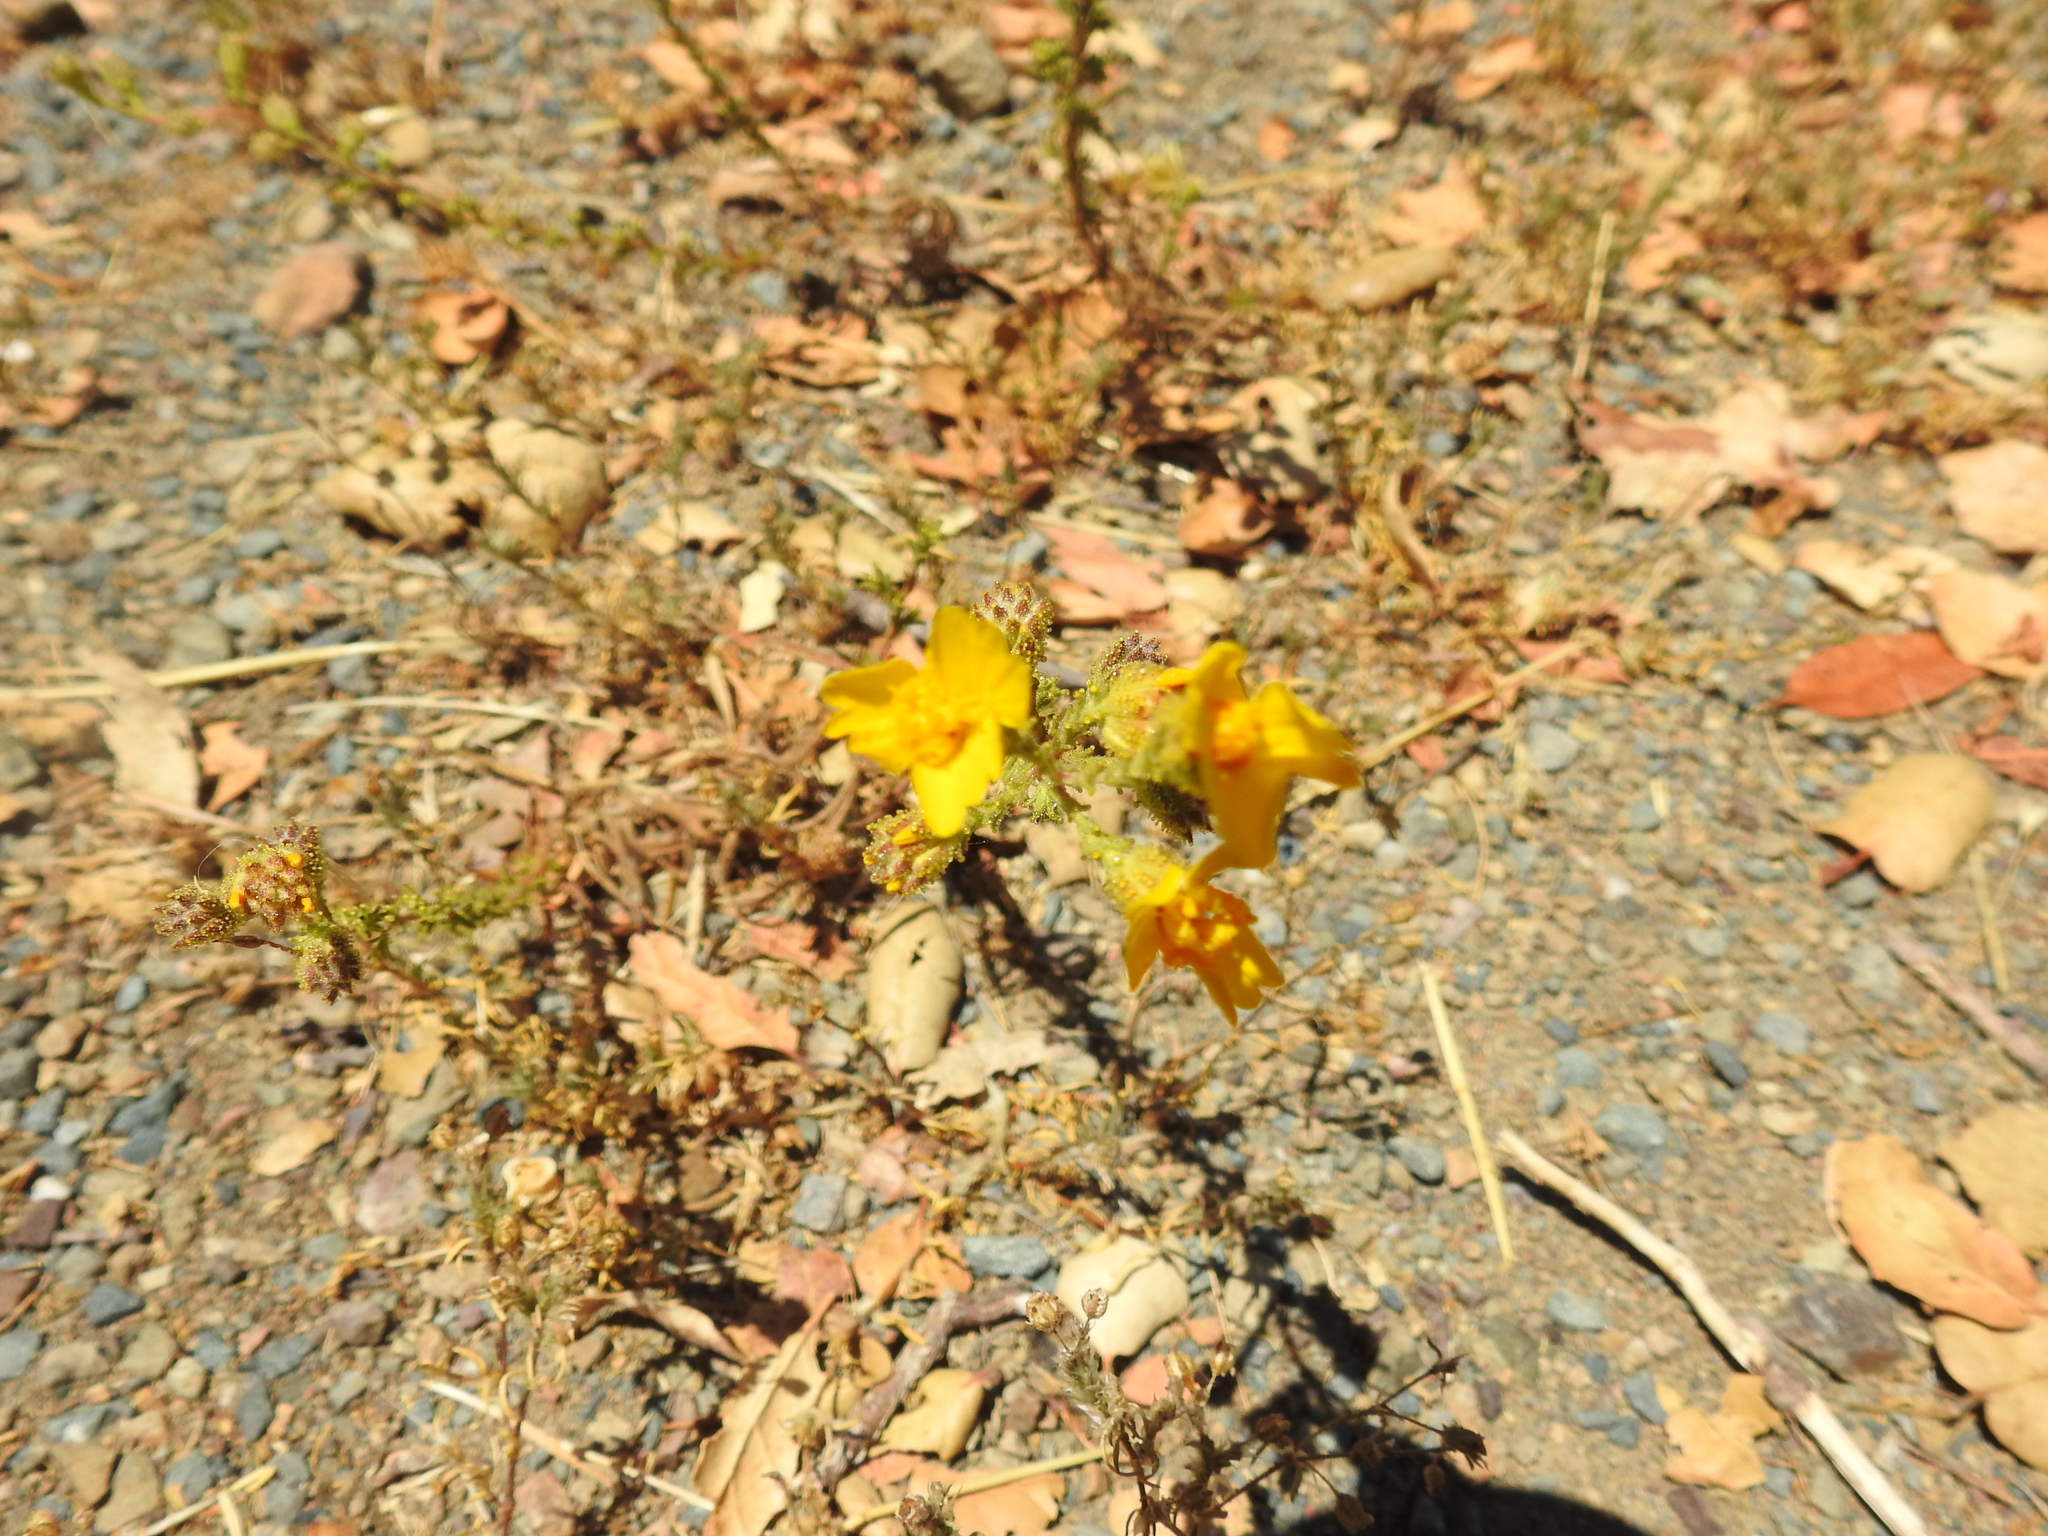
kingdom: Plantae
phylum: Tracheophyta
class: Magnoliopsida
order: Asterales
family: Asteraceae
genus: Holocarpha
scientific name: Holocarpha heermannii
